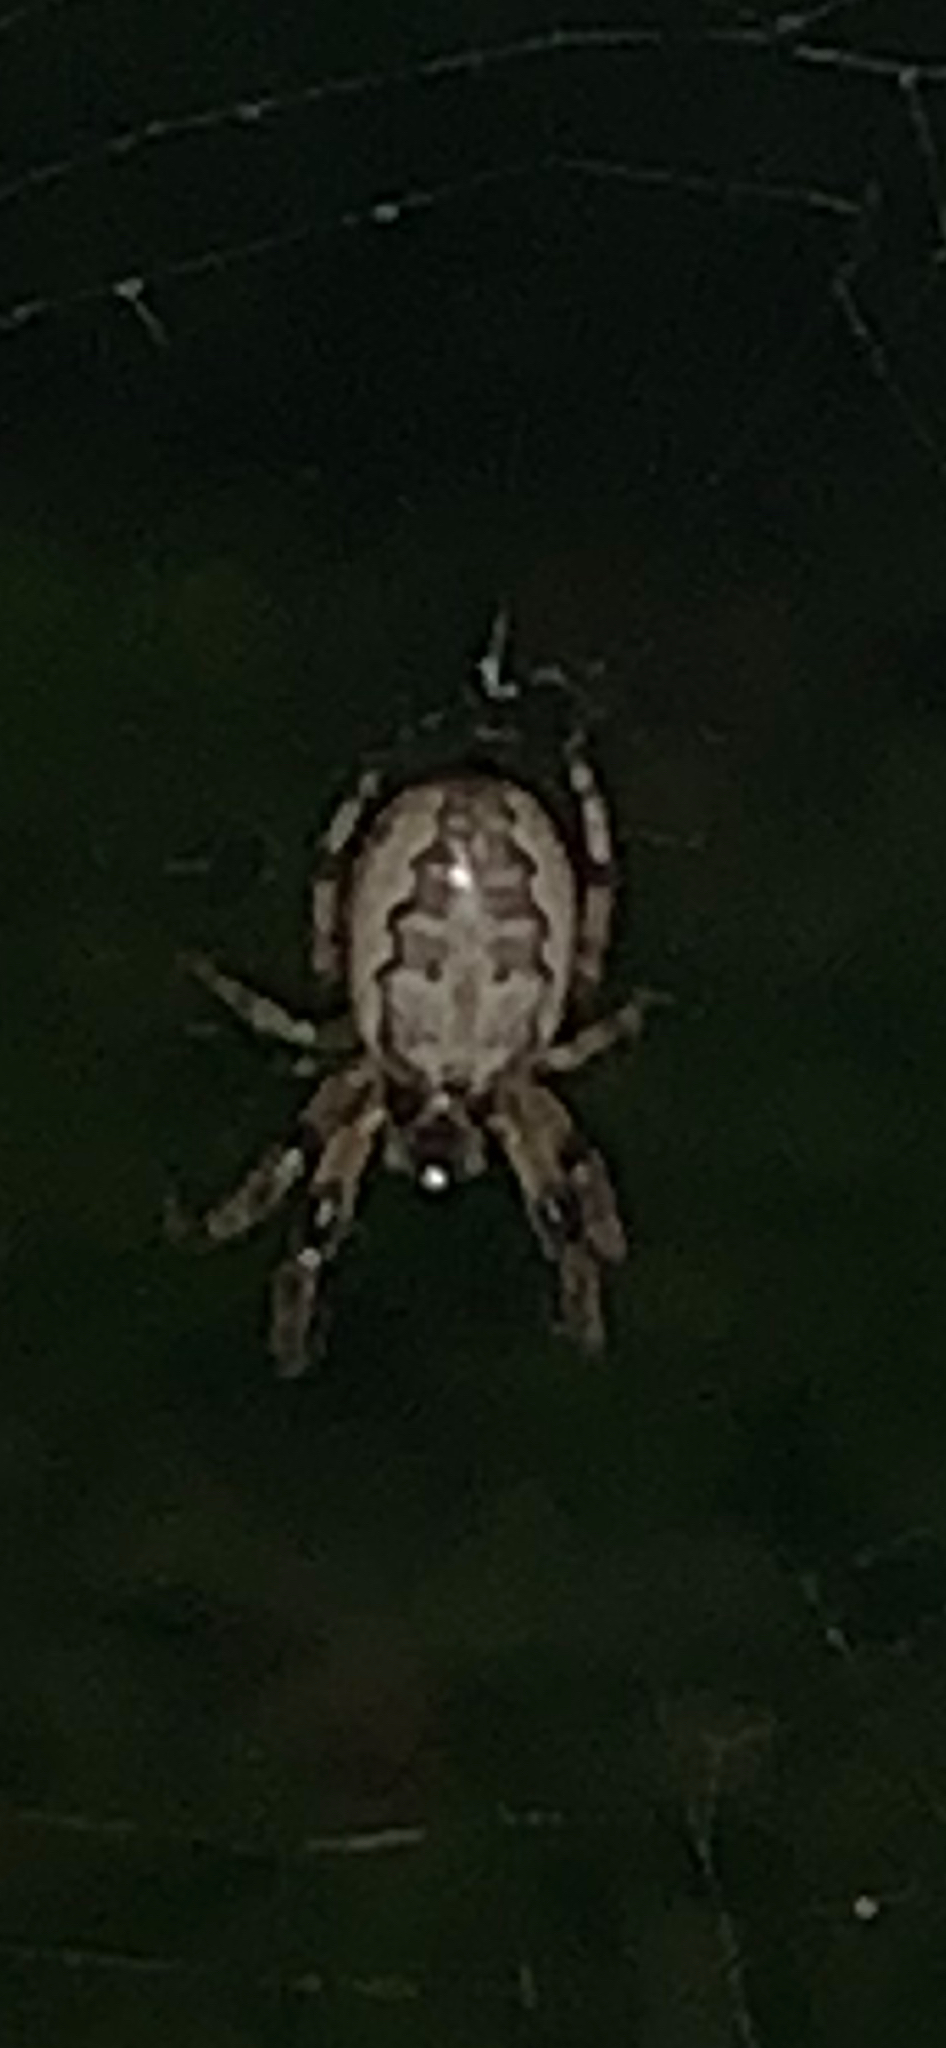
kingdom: Animalia
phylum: Arthropoda
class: Arachnida
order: Araneae
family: Araneidae
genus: Larinioides
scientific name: Larinioides cornutus
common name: Furrow orbweaver
